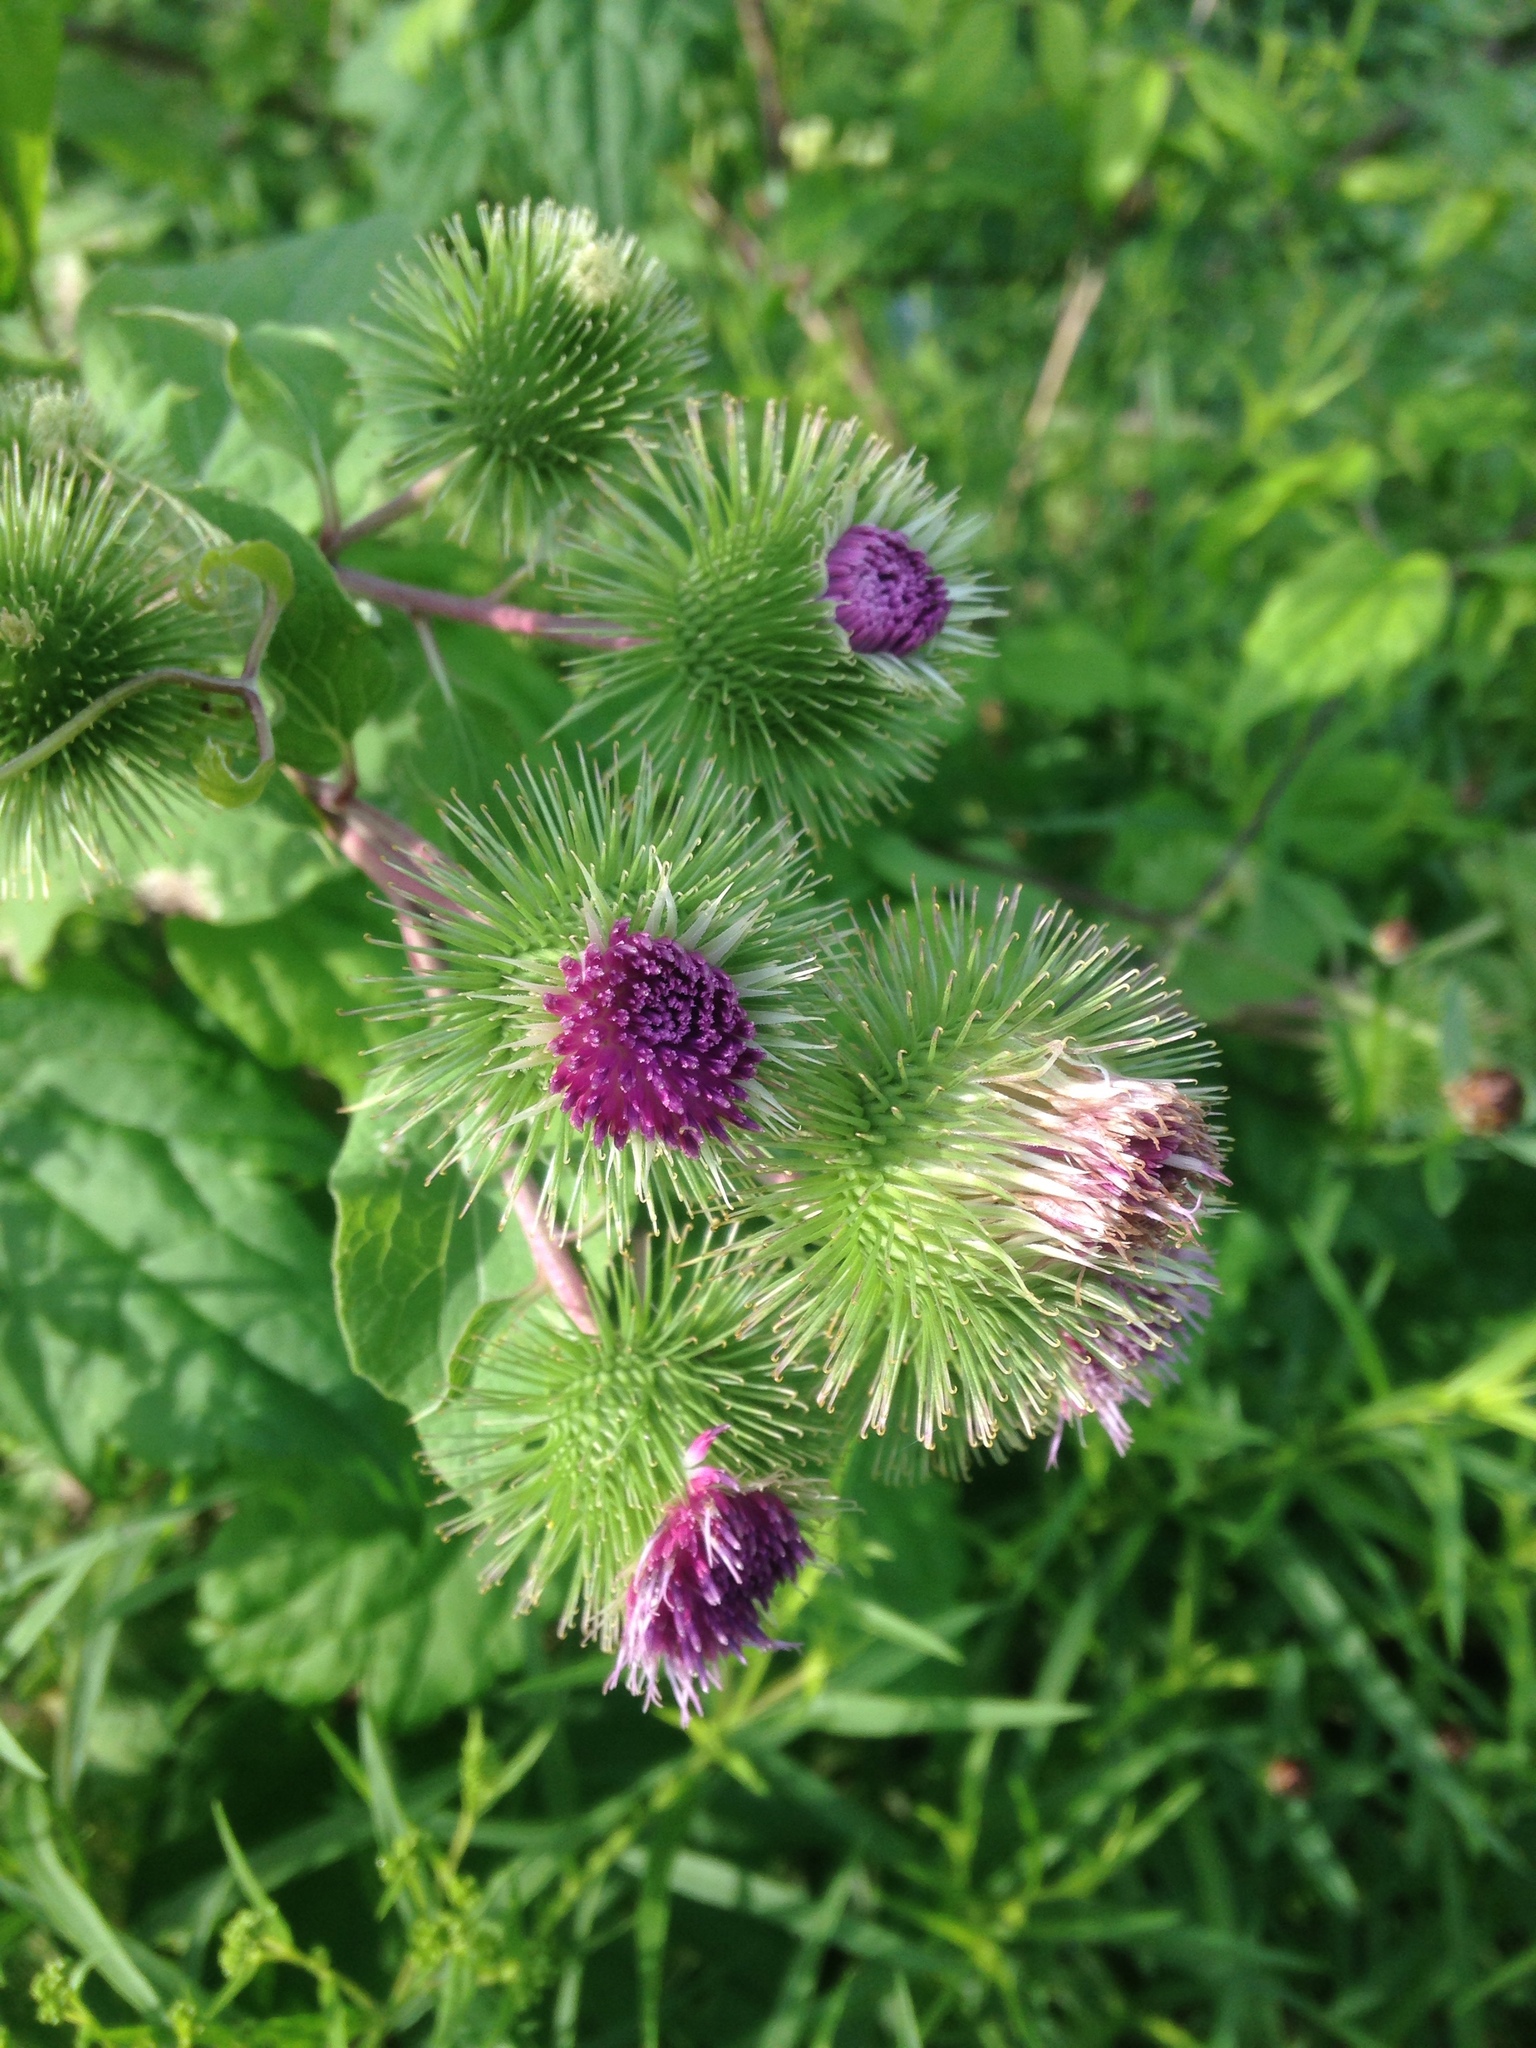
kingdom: Plantae
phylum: Tracheophyta
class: Magnoliopsida
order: Asterales
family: Asteraceae
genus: Arctium
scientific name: Arctium lappa
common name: Greater burdock
